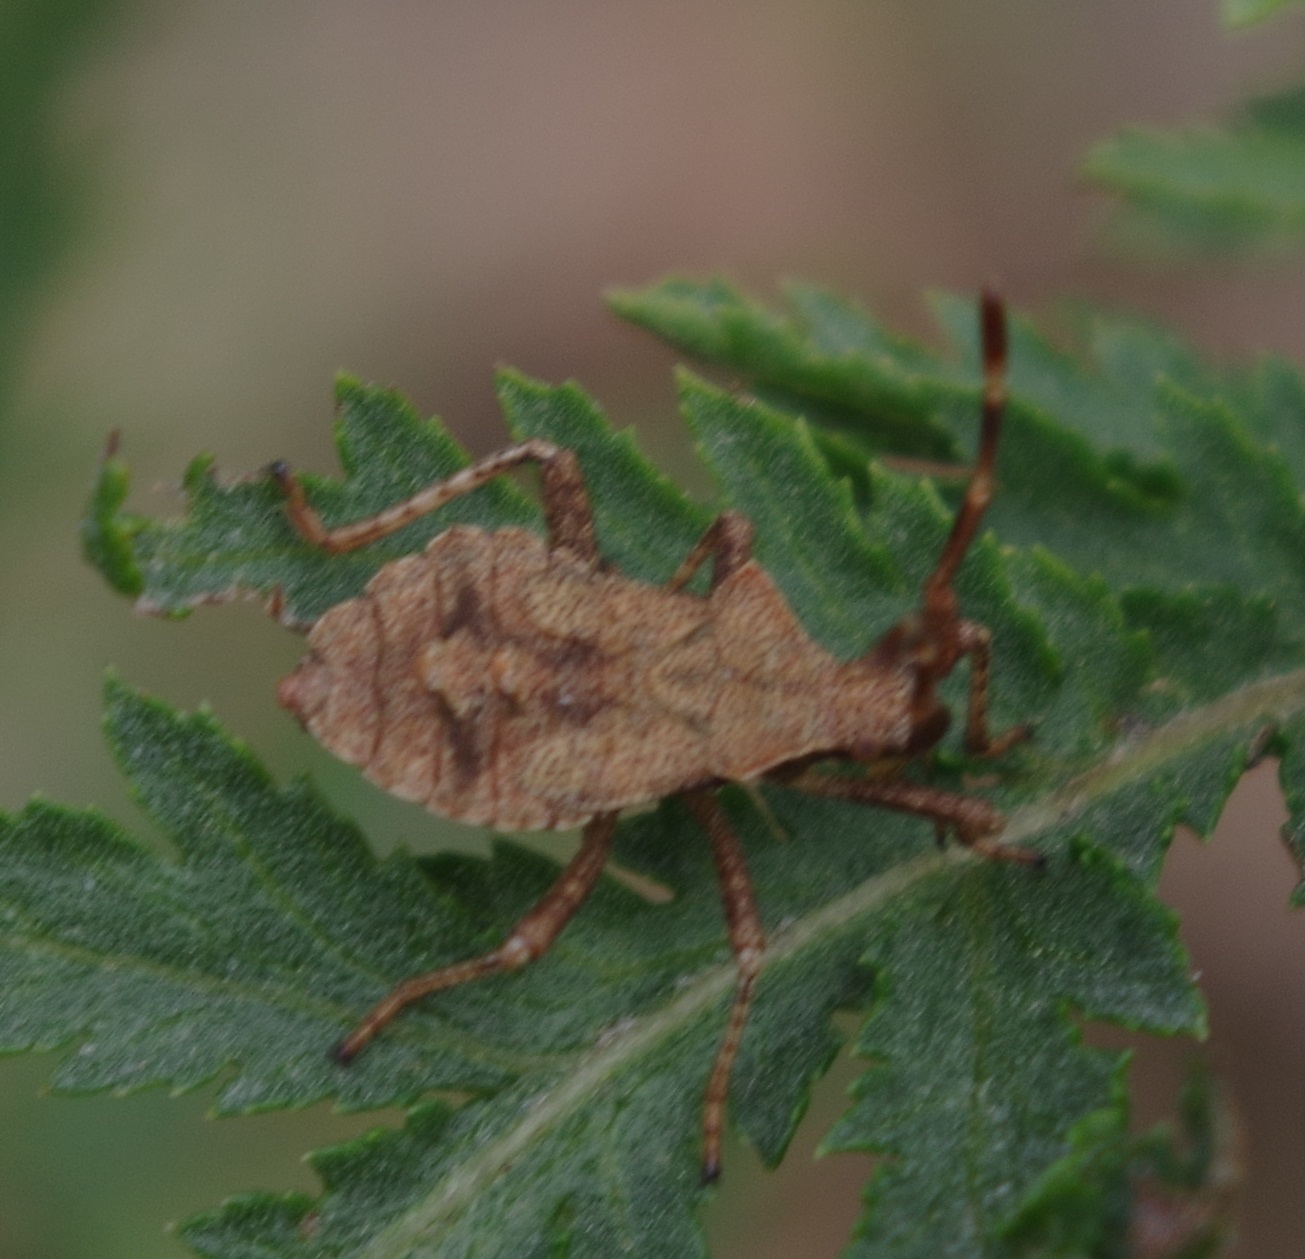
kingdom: Animalia
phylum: Arthropoda
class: Insecta
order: Hemiptera
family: Coreidae
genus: Coreus
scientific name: Coreus marginatus
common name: Dock bug
